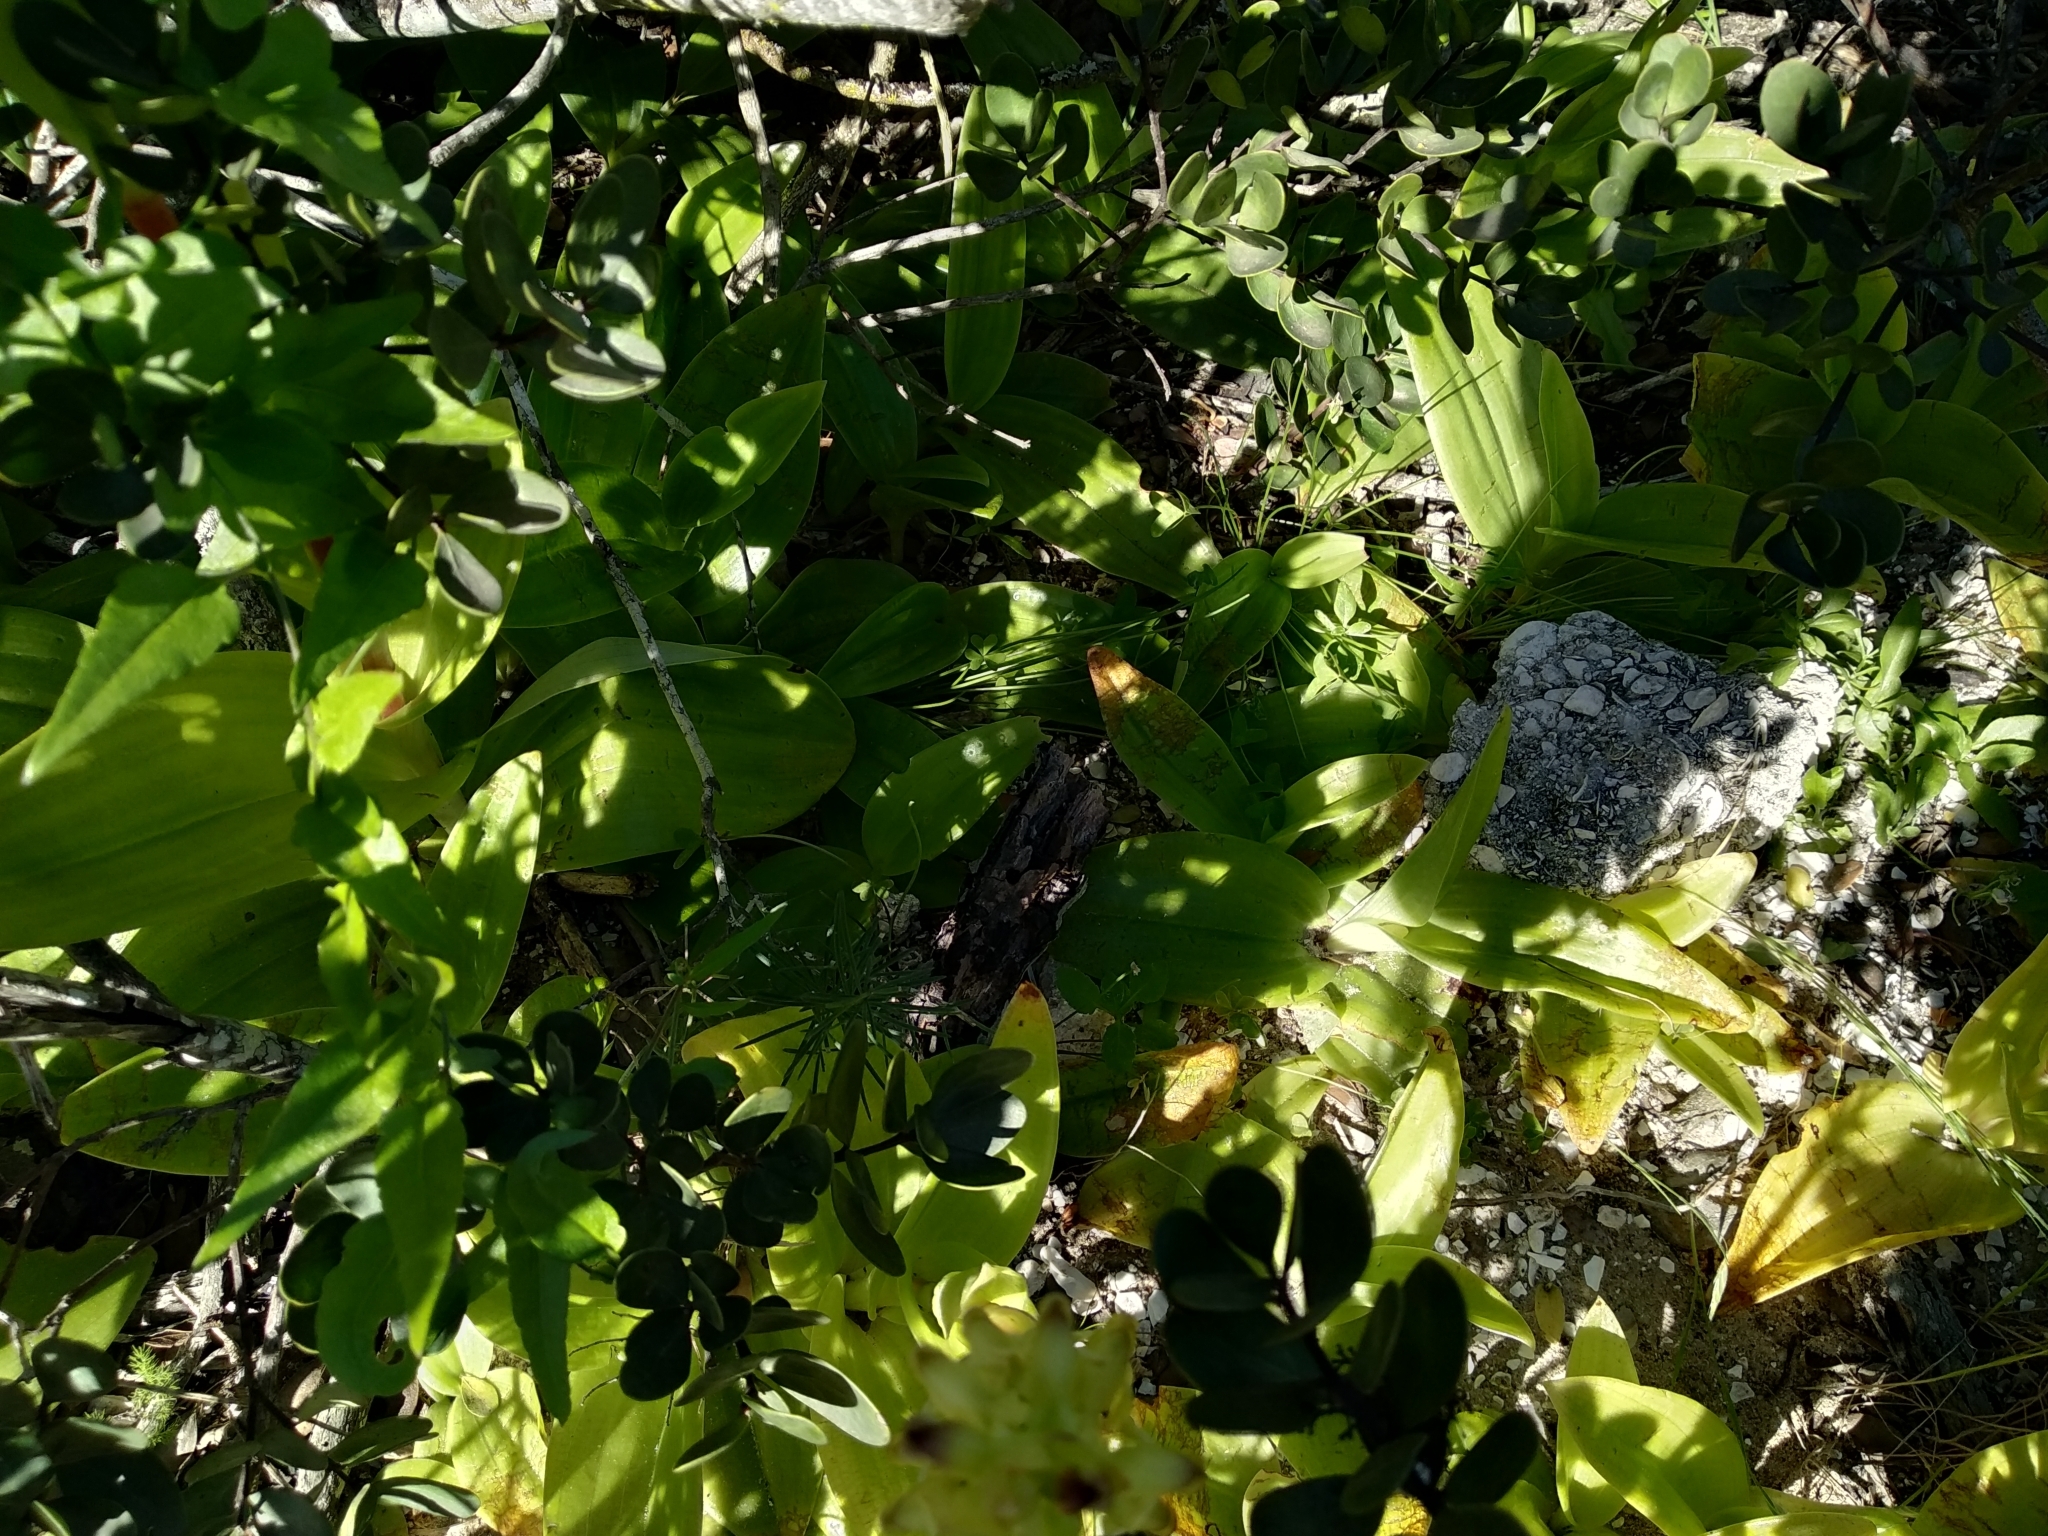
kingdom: Plantae
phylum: Tracheophyta
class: Liliopsida
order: Asparagales
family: Orchidaceae
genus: Satyrium
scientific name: Satyrium odorum
